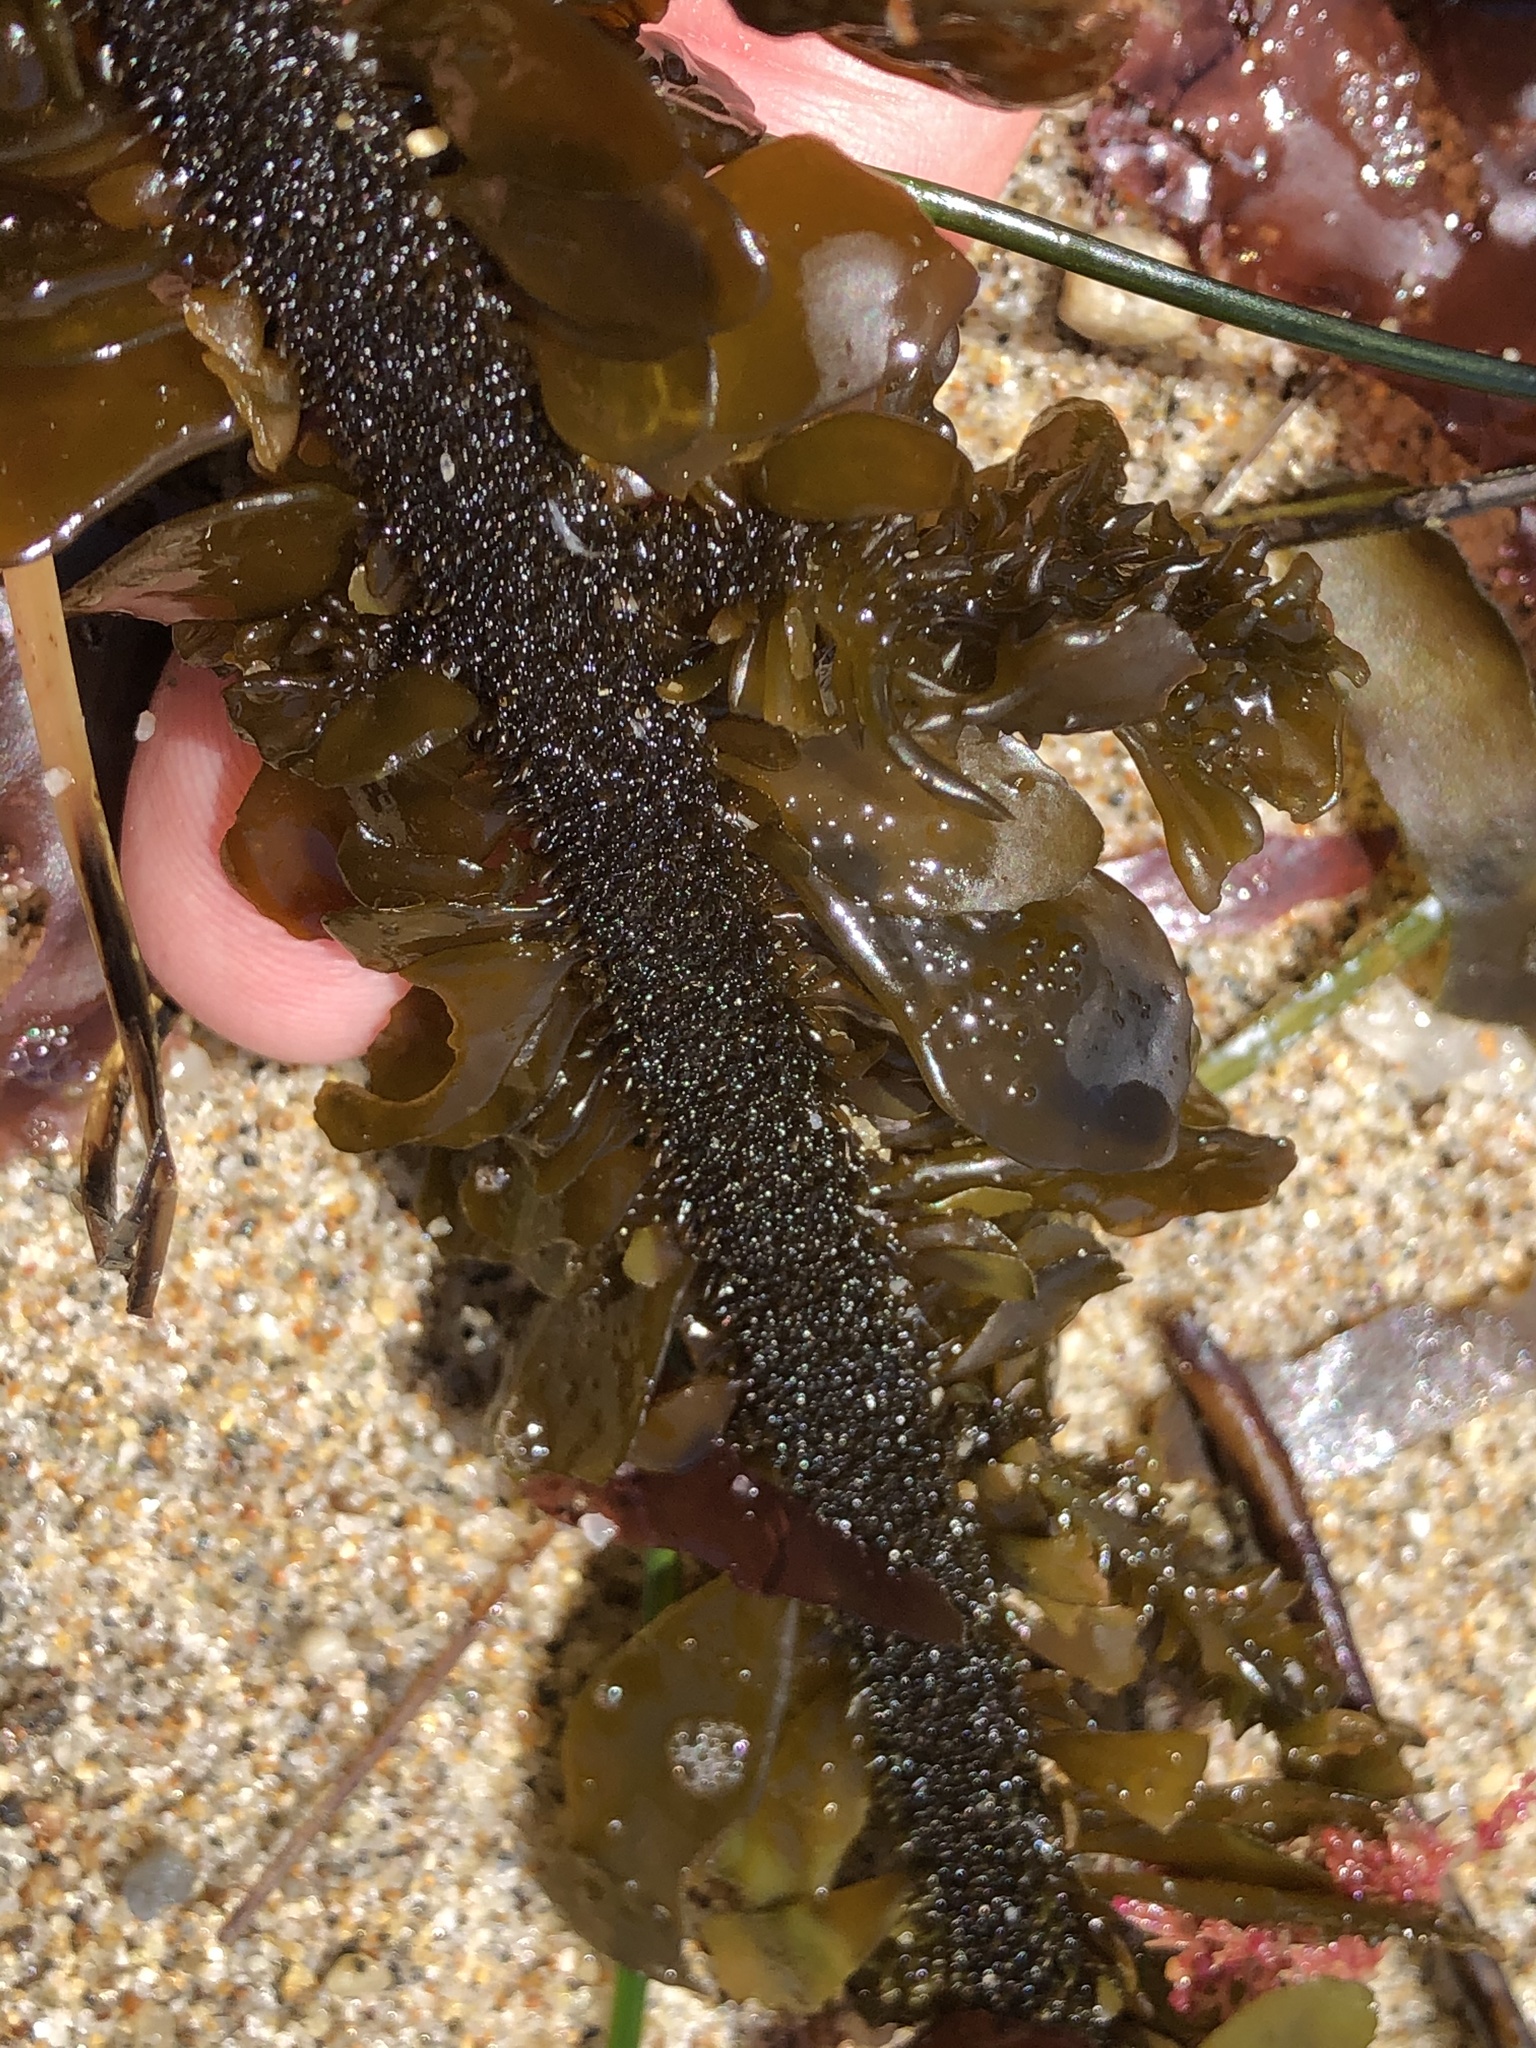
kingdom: Chromista
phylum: Ochrophyta
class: Phaeophyceae
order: Laminariales
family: Lessoniaceae
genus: Egregia
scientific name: Egregia menziesii
